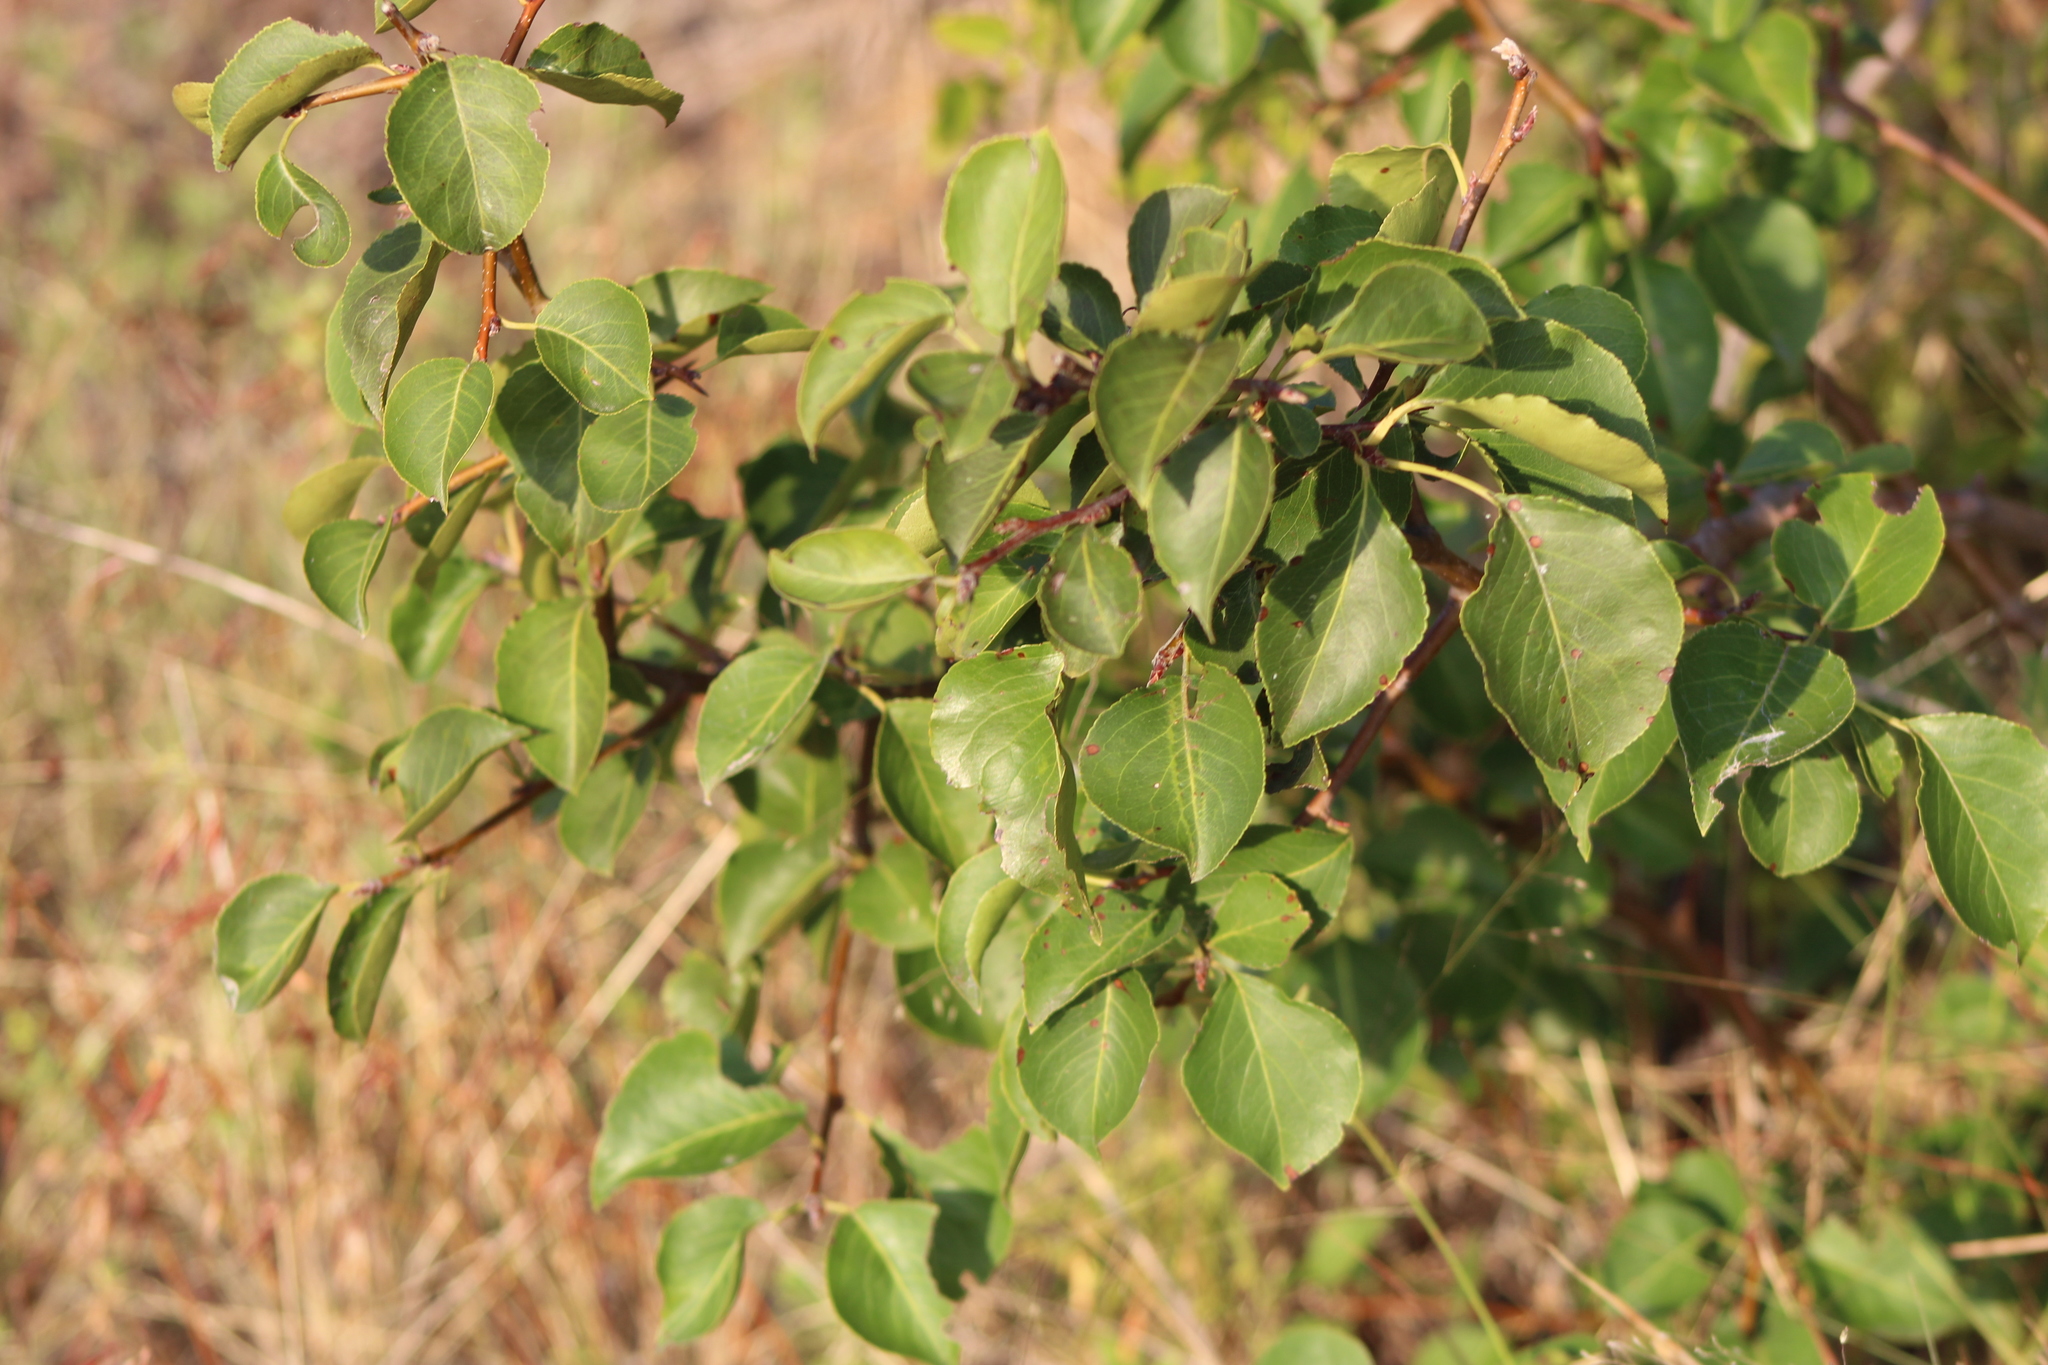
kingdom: Plantae
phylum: Tracheophyta
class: Magnoliopsida
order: Rosales
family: Rosaceae
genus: Pyrus
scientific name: Pyrus calleryana
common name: Callery pear
